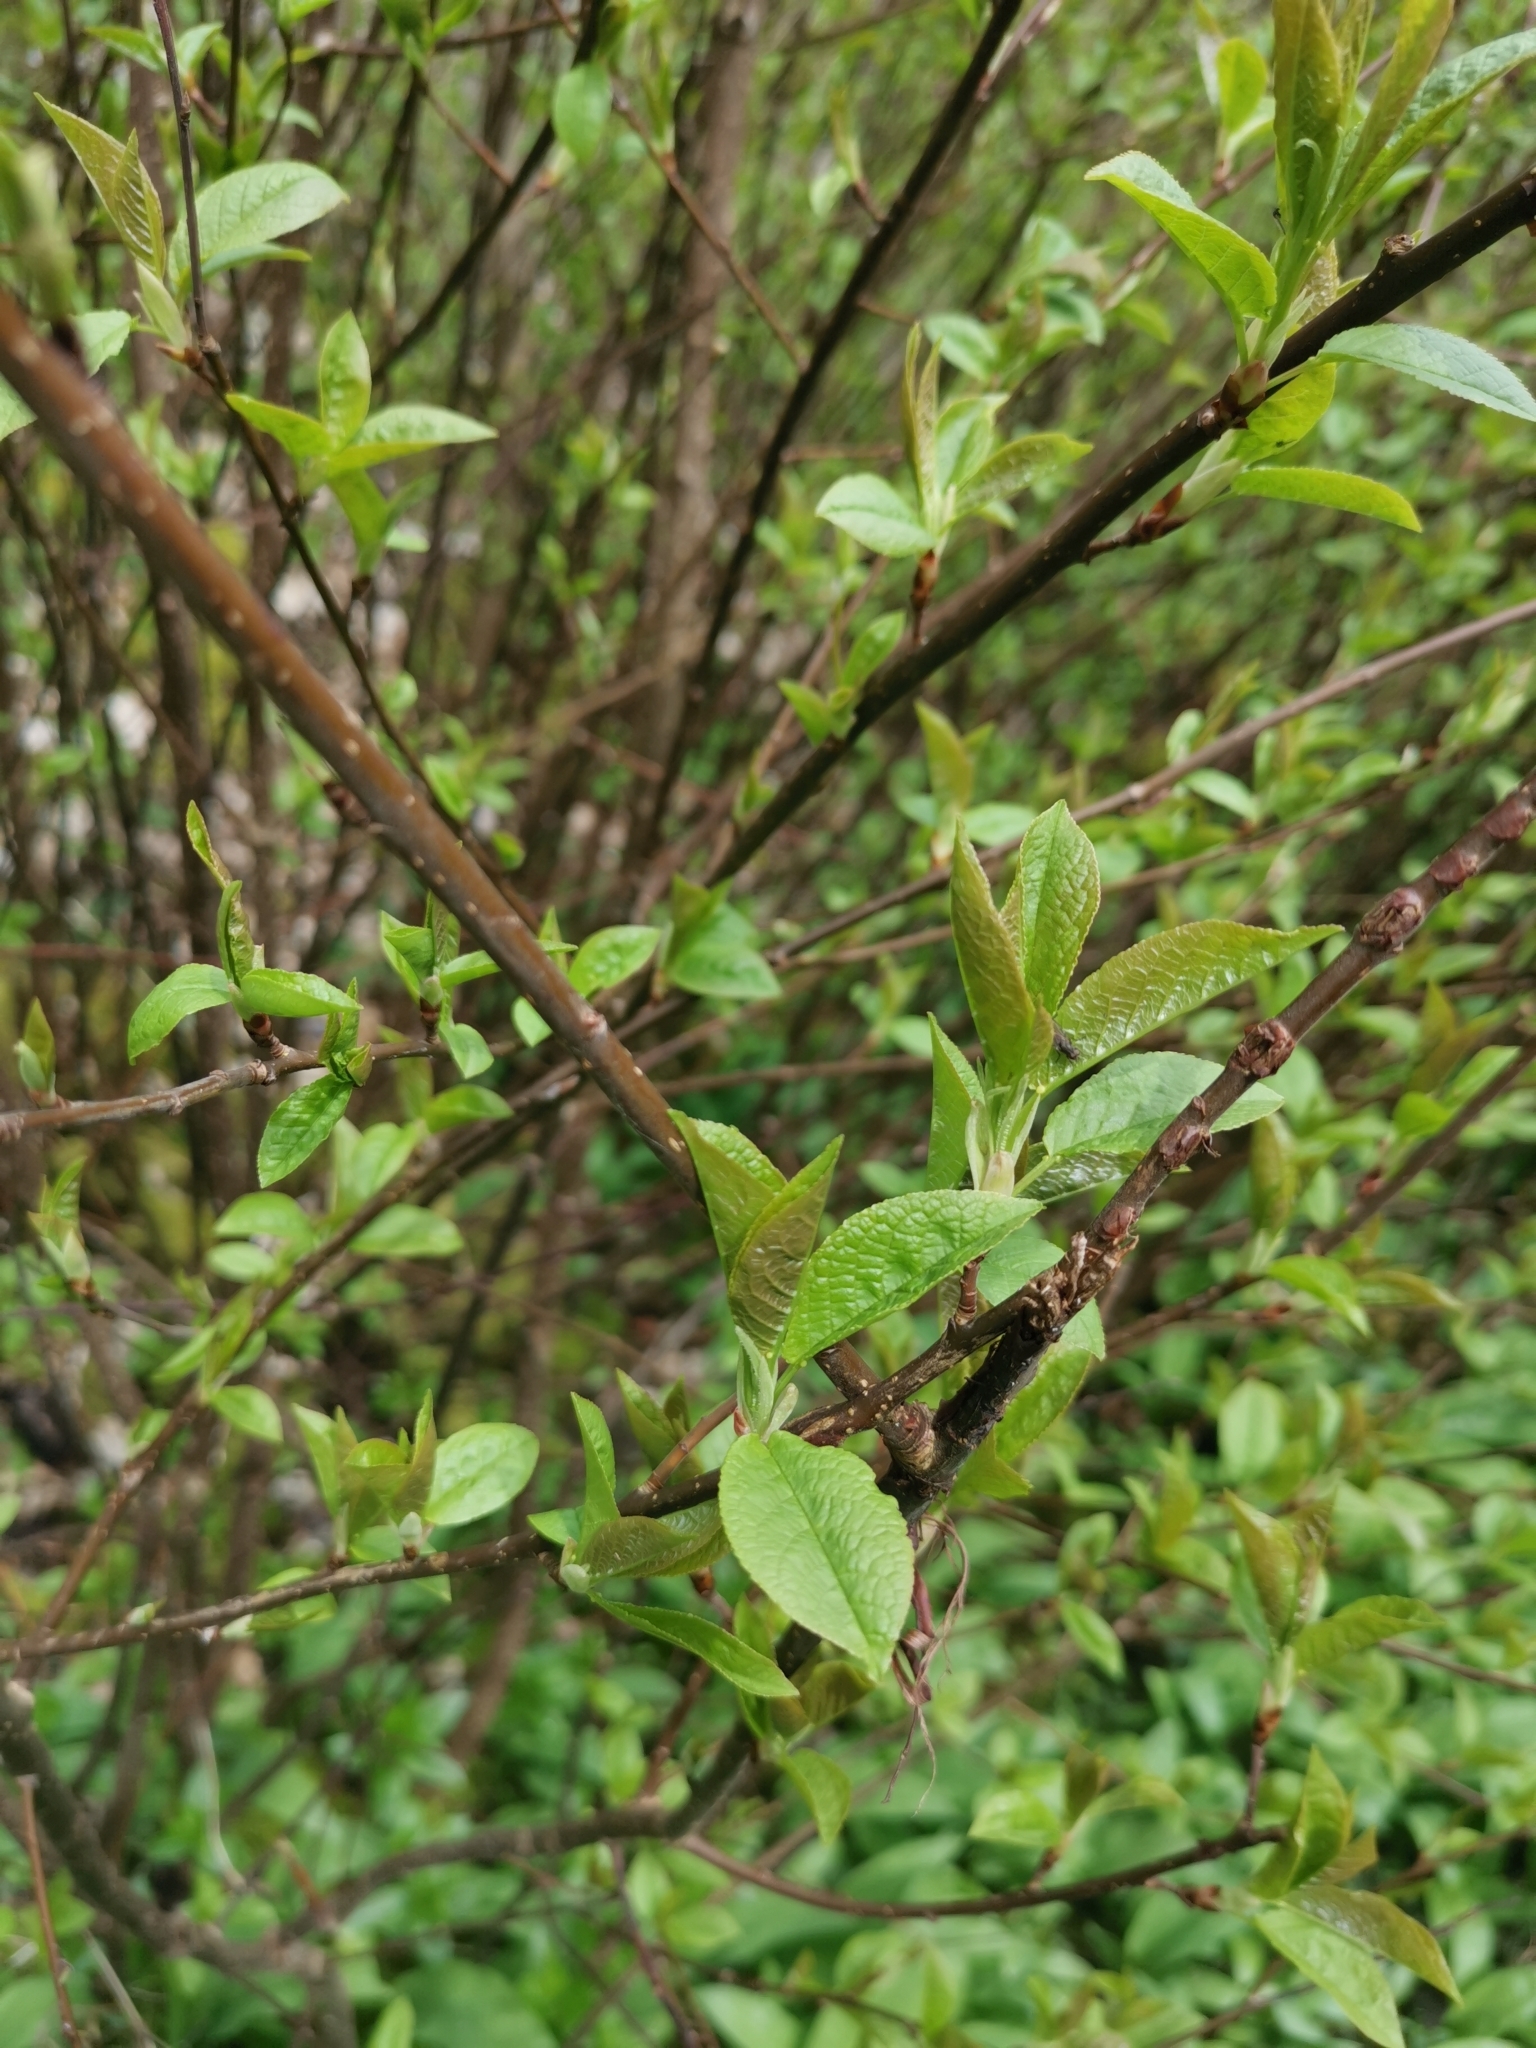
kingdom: Plantae
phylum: Tracheophyta
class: Magnoliopsida
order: Rosales
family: Rosaceae
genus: Prunus
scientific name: Prunus padus
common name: Bird cherry
